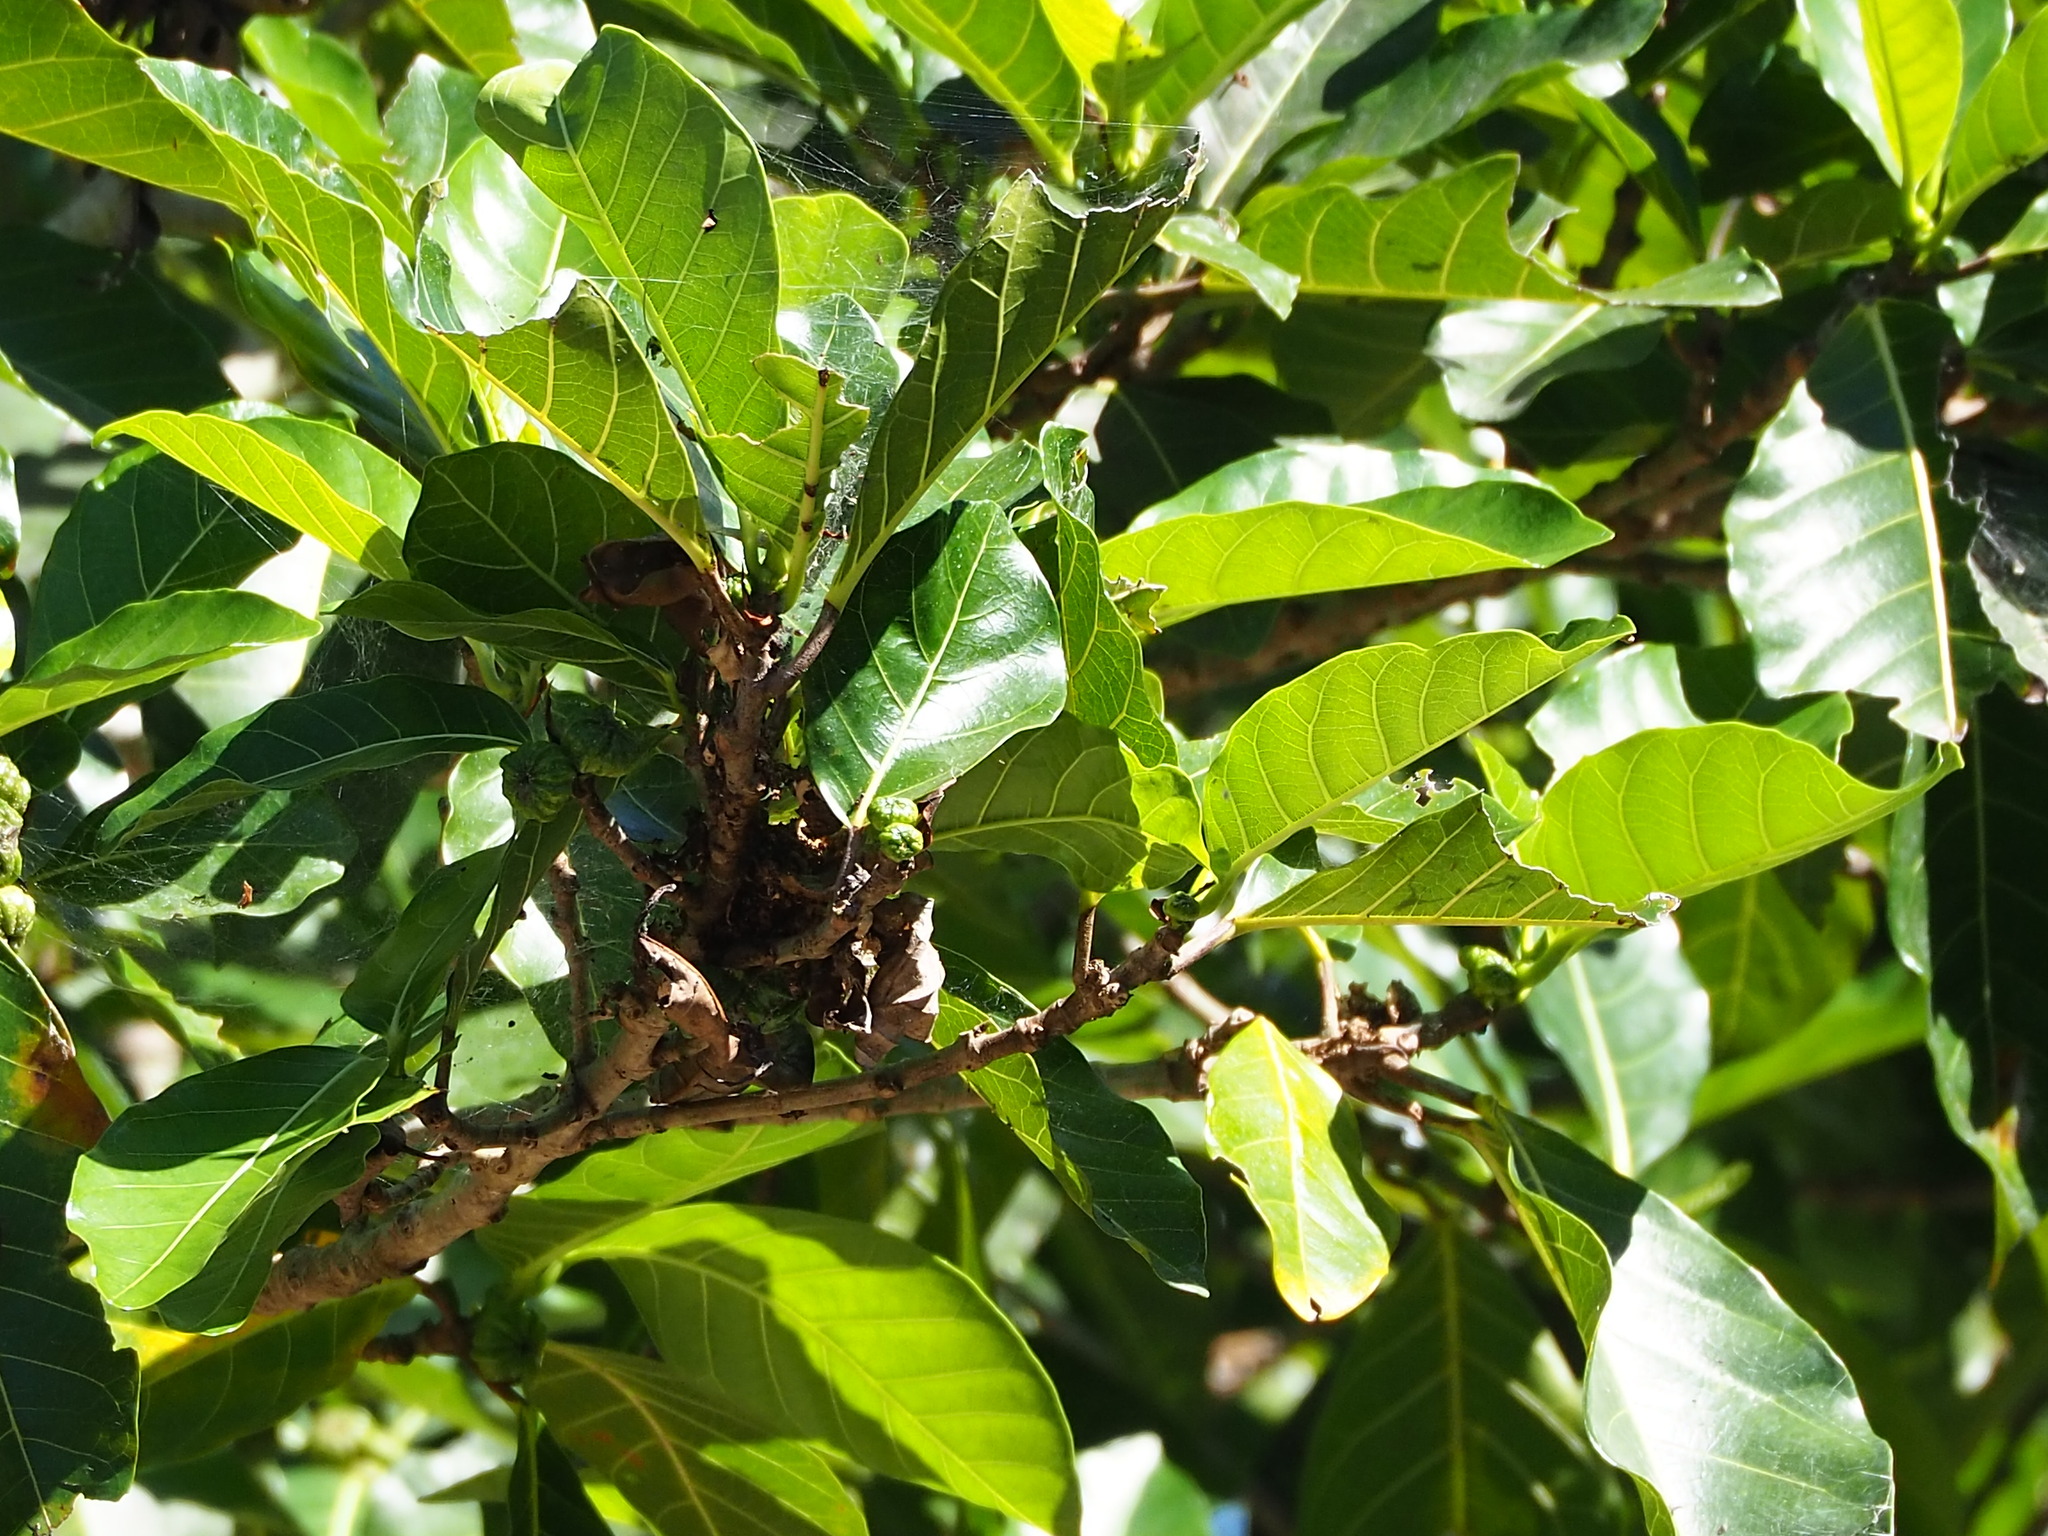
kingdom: Plantae
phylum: Tracheophyta
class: Magnoliopsida
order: Rosales
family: Moraceae
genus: Ficus
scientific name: Ficus septica
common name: Septic fig
